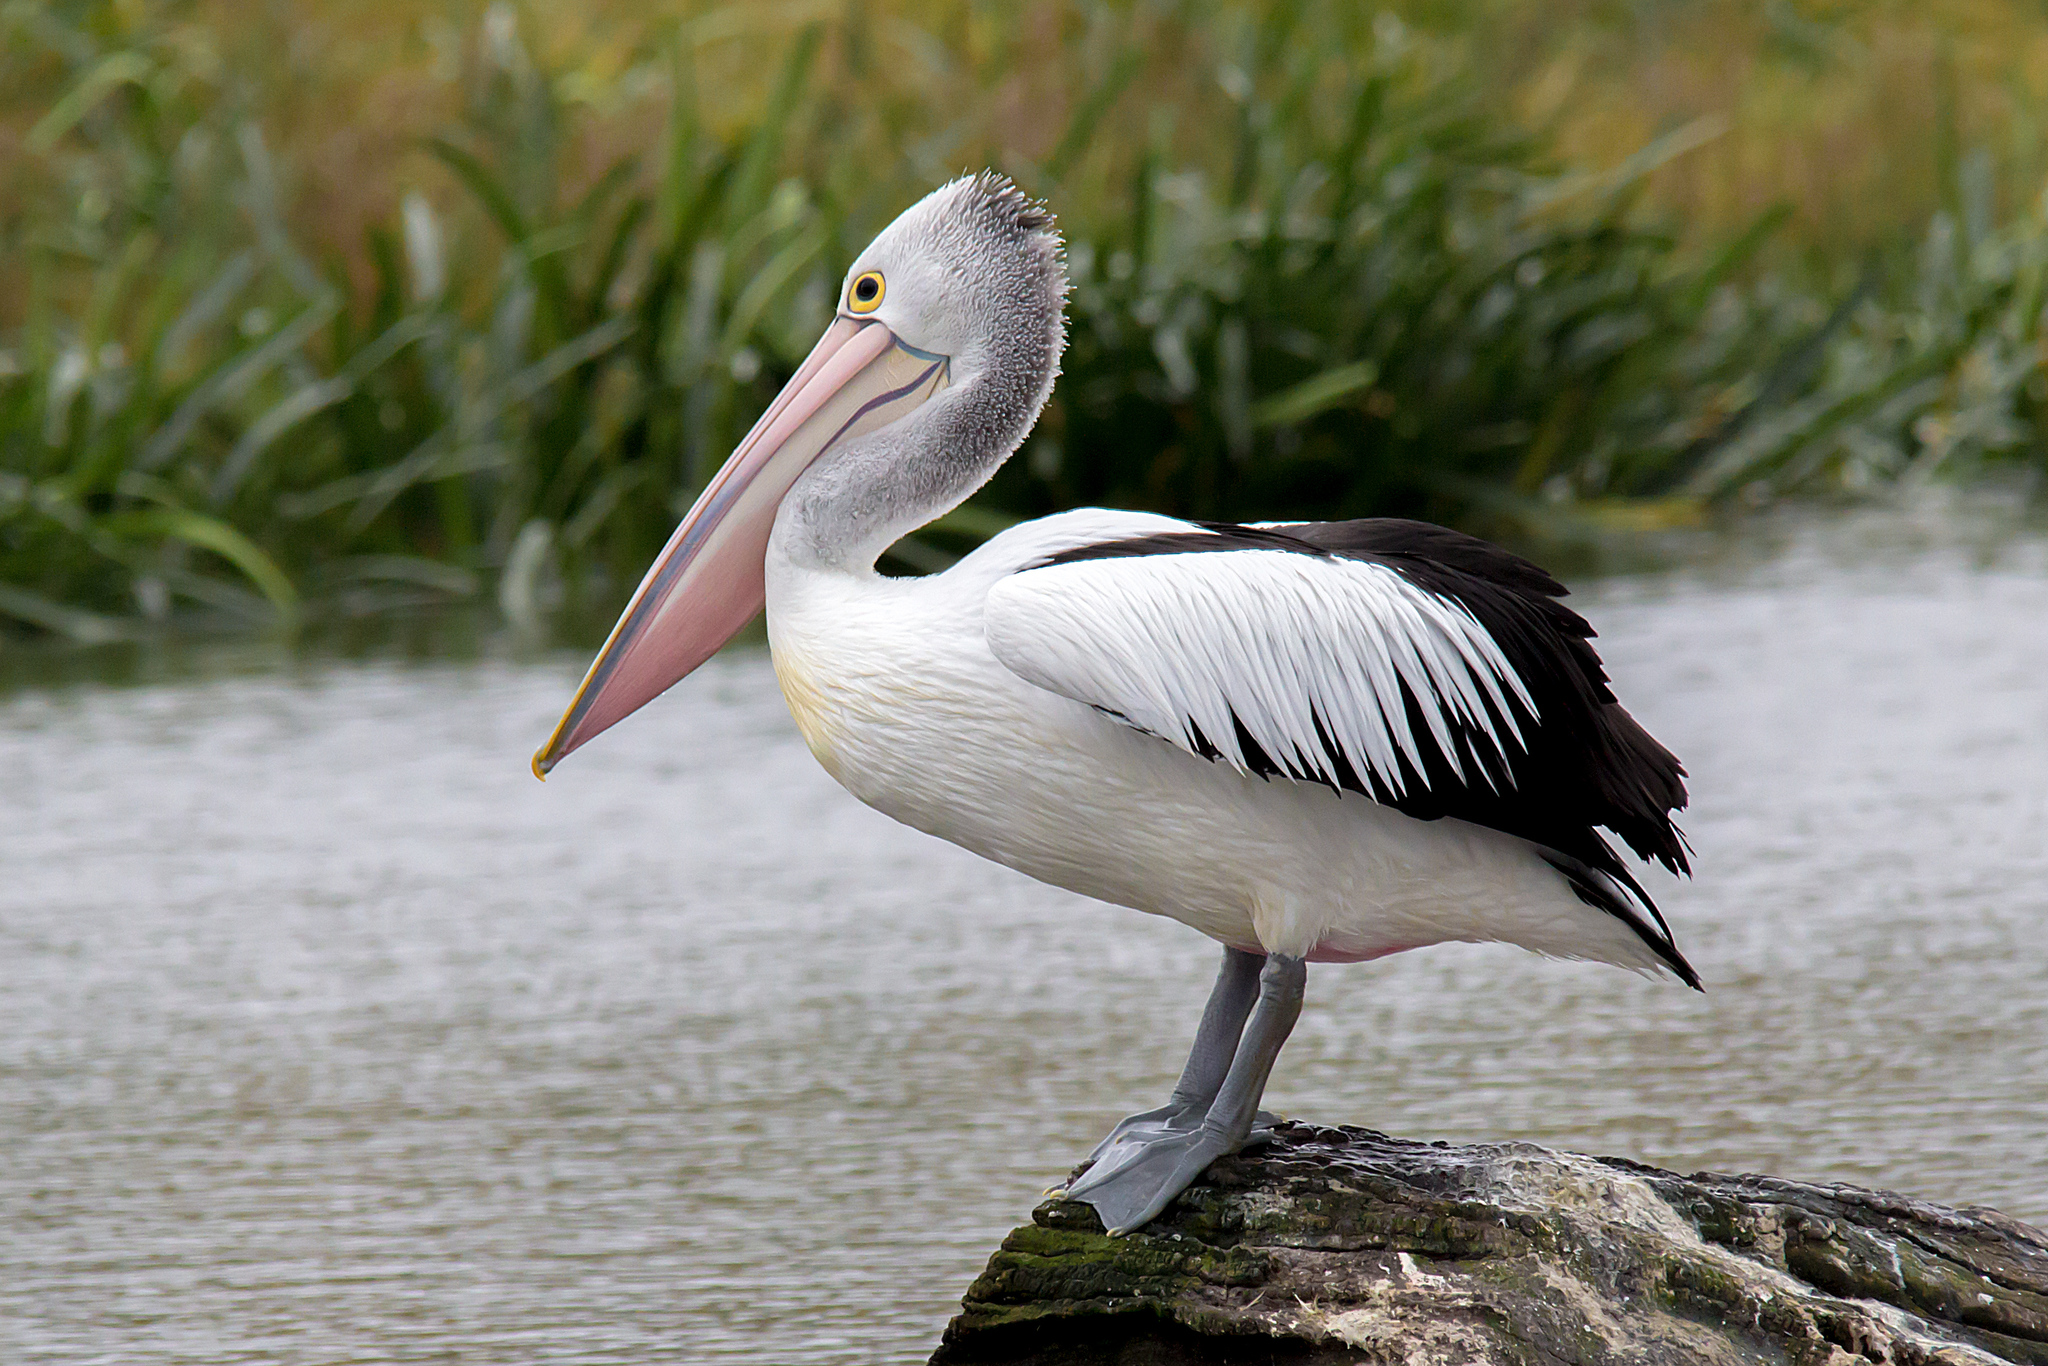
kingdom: Animalia
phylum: Chordata
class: Aves
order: Pelecaniformes
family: Pelecanidae
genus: Pelecanus
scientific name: Pelecanus conspicillatus
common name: Australian pelican
